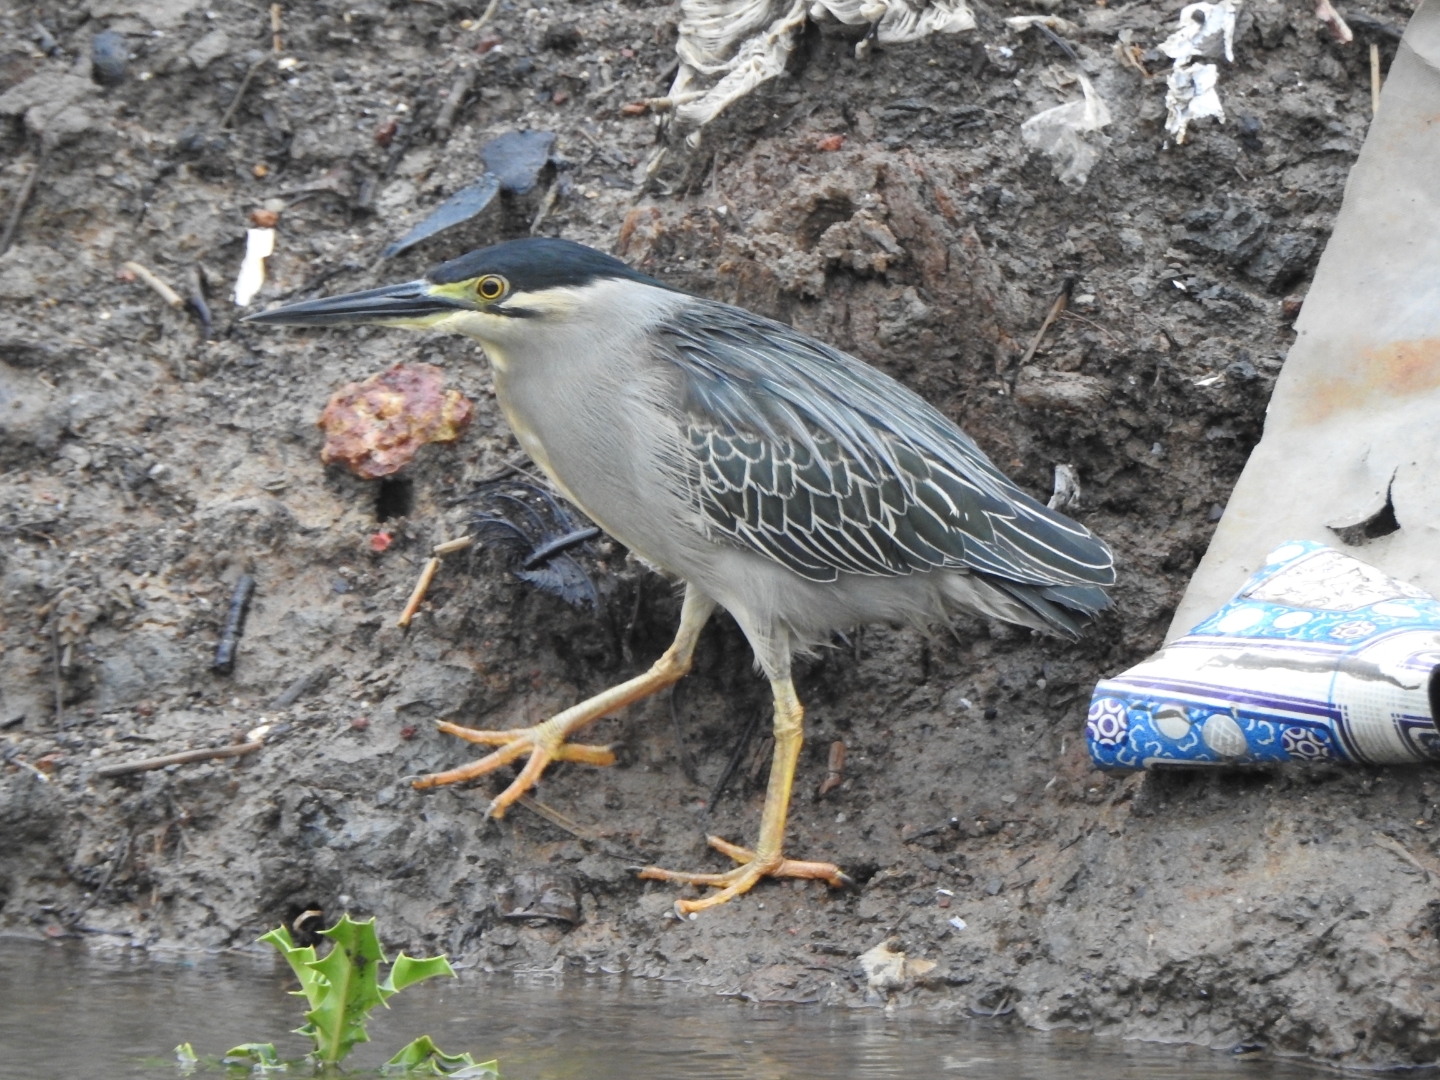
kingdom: Animalia
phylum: Chordata
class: Aves
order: Pelecaniformes
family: Ardeidae
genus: Butorides
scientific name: Butorides striata
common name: Striated heron
